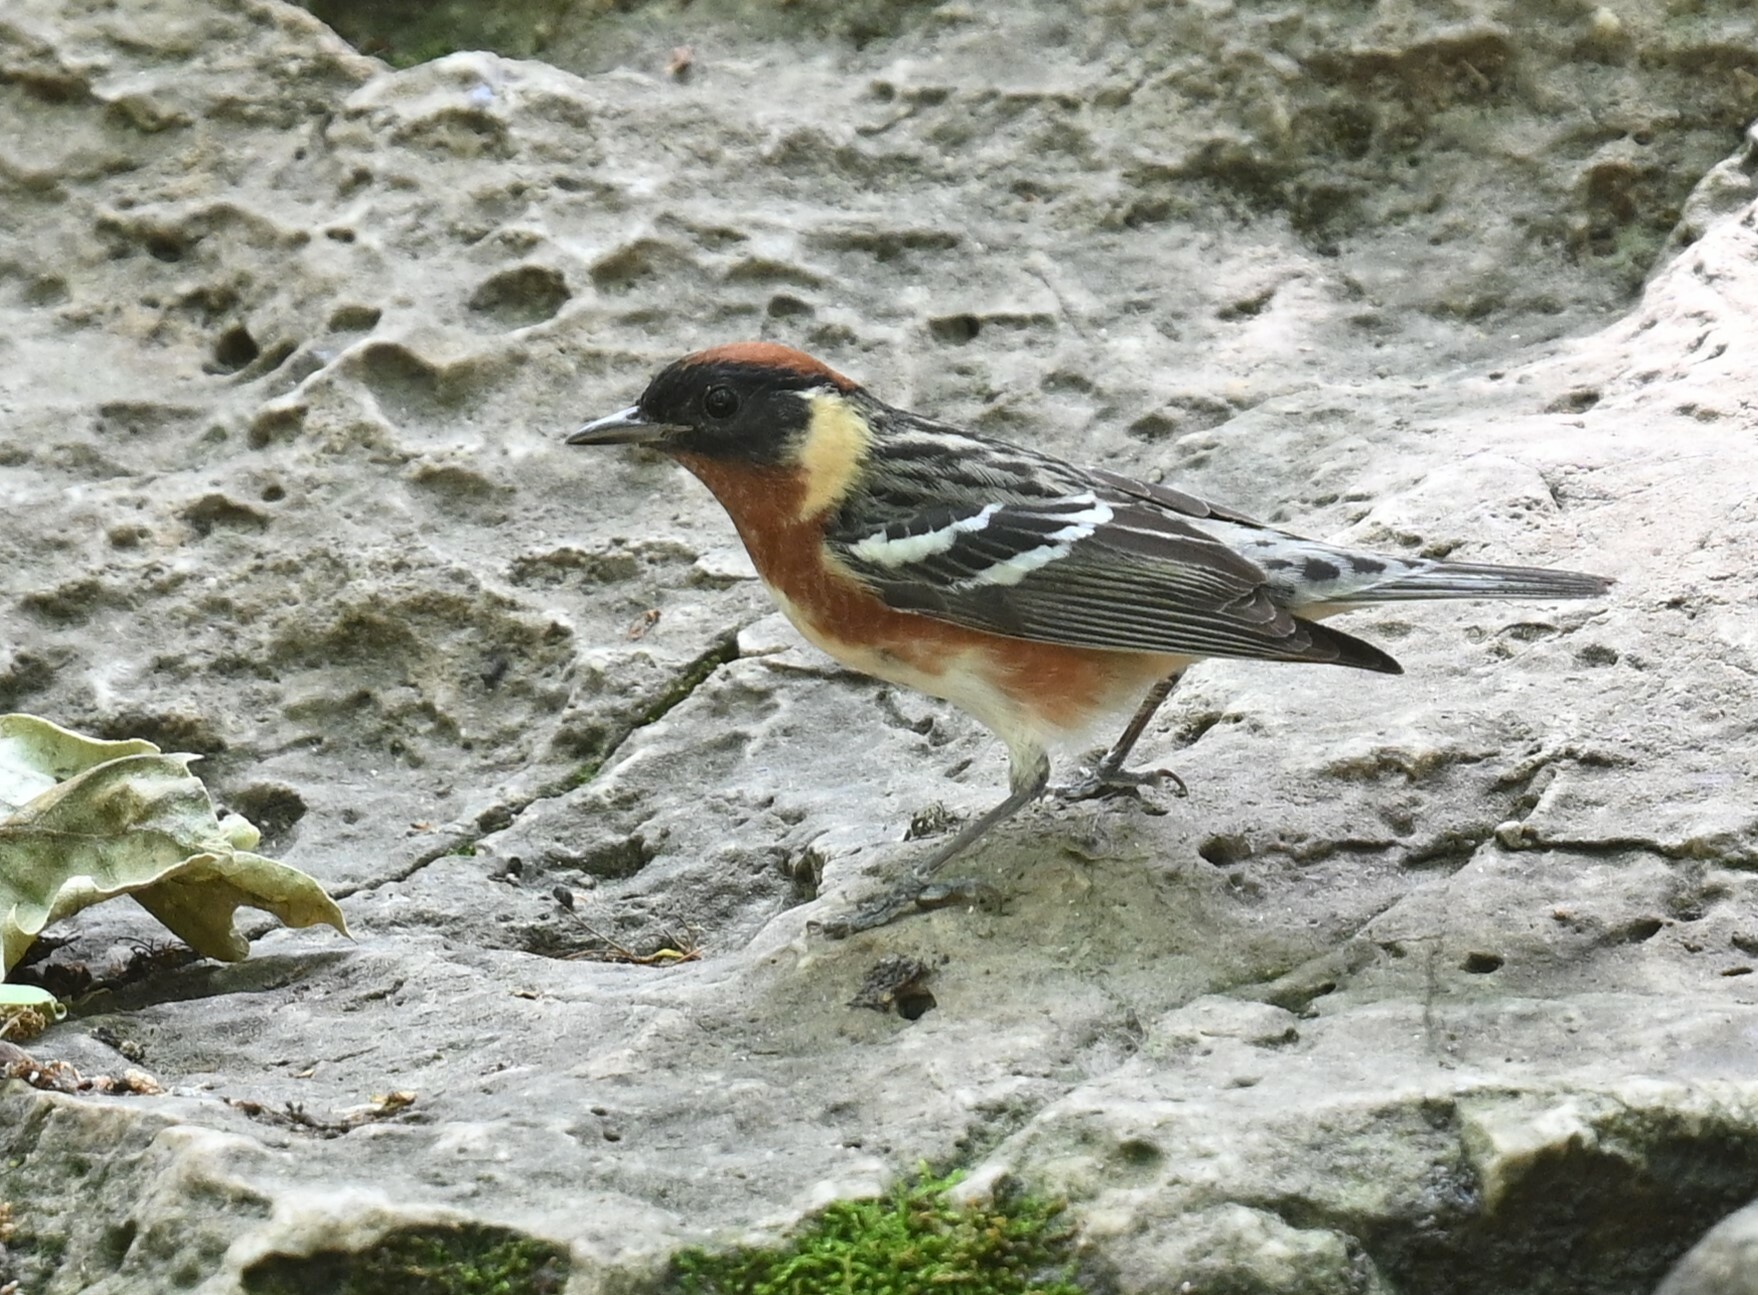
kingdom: Animalia
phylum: Chordata
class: Aves
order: Passeriformes
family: Parulidae
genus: Setophaga
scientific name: Setophaga castanea
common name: Bay-breasted warbler
